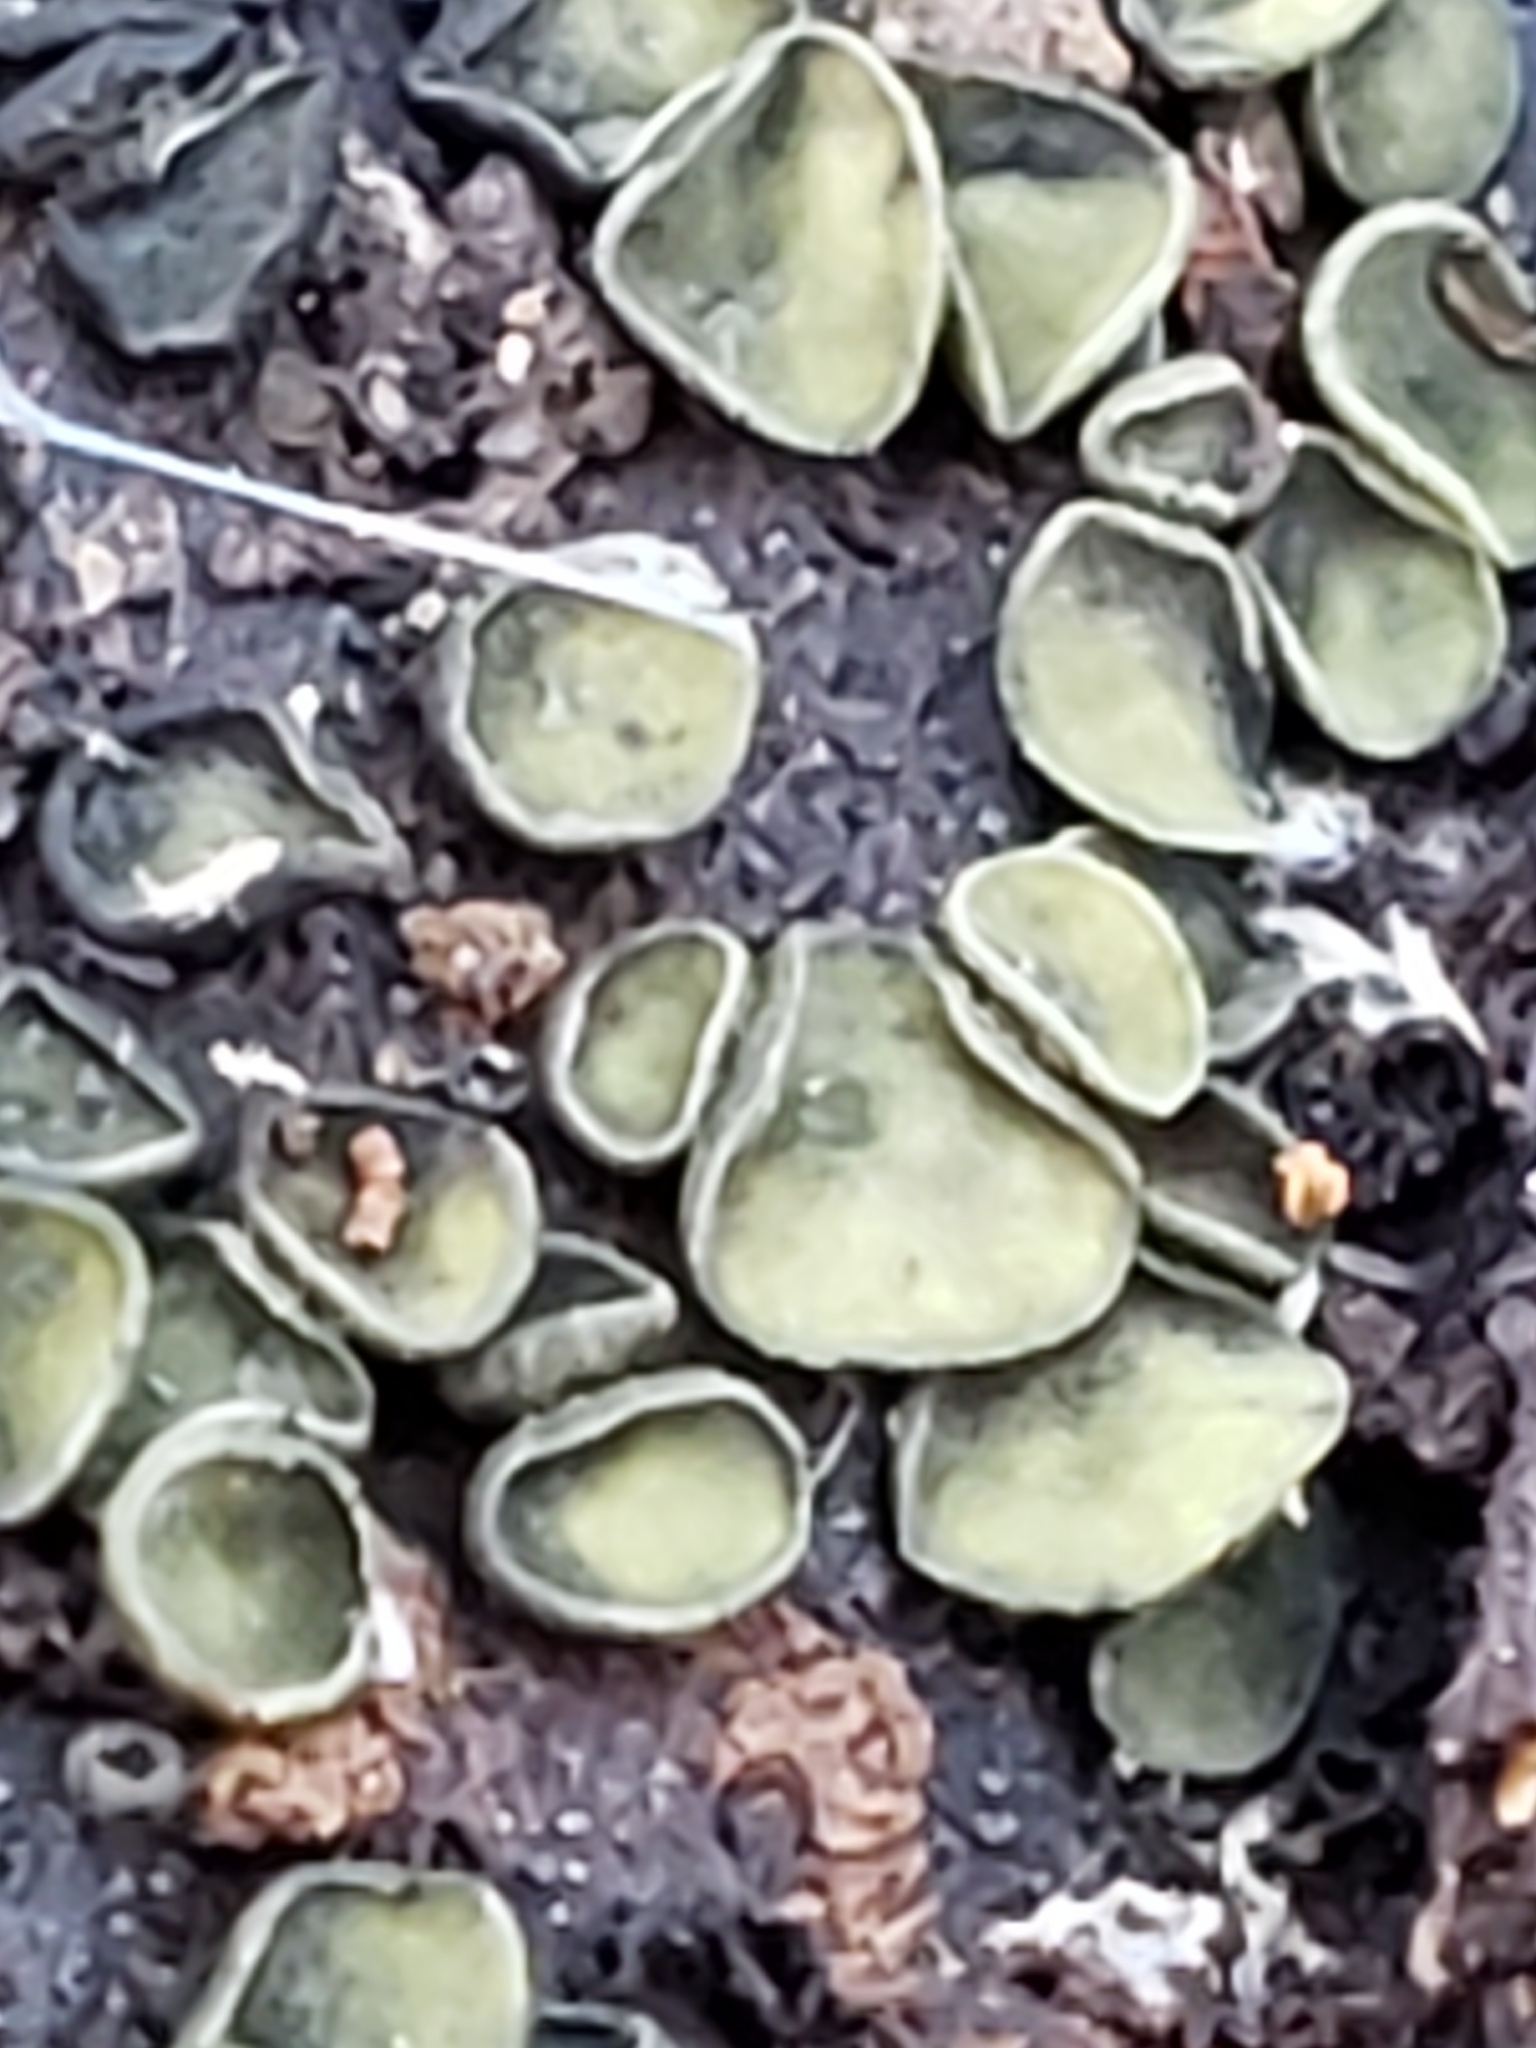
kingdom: Fungi
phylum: Ascomycota
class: Leotiomycetes
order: Helotiales
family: Chlorospleniaceae
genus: Chlorosplenium
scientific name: Chlorosplenium chlora
